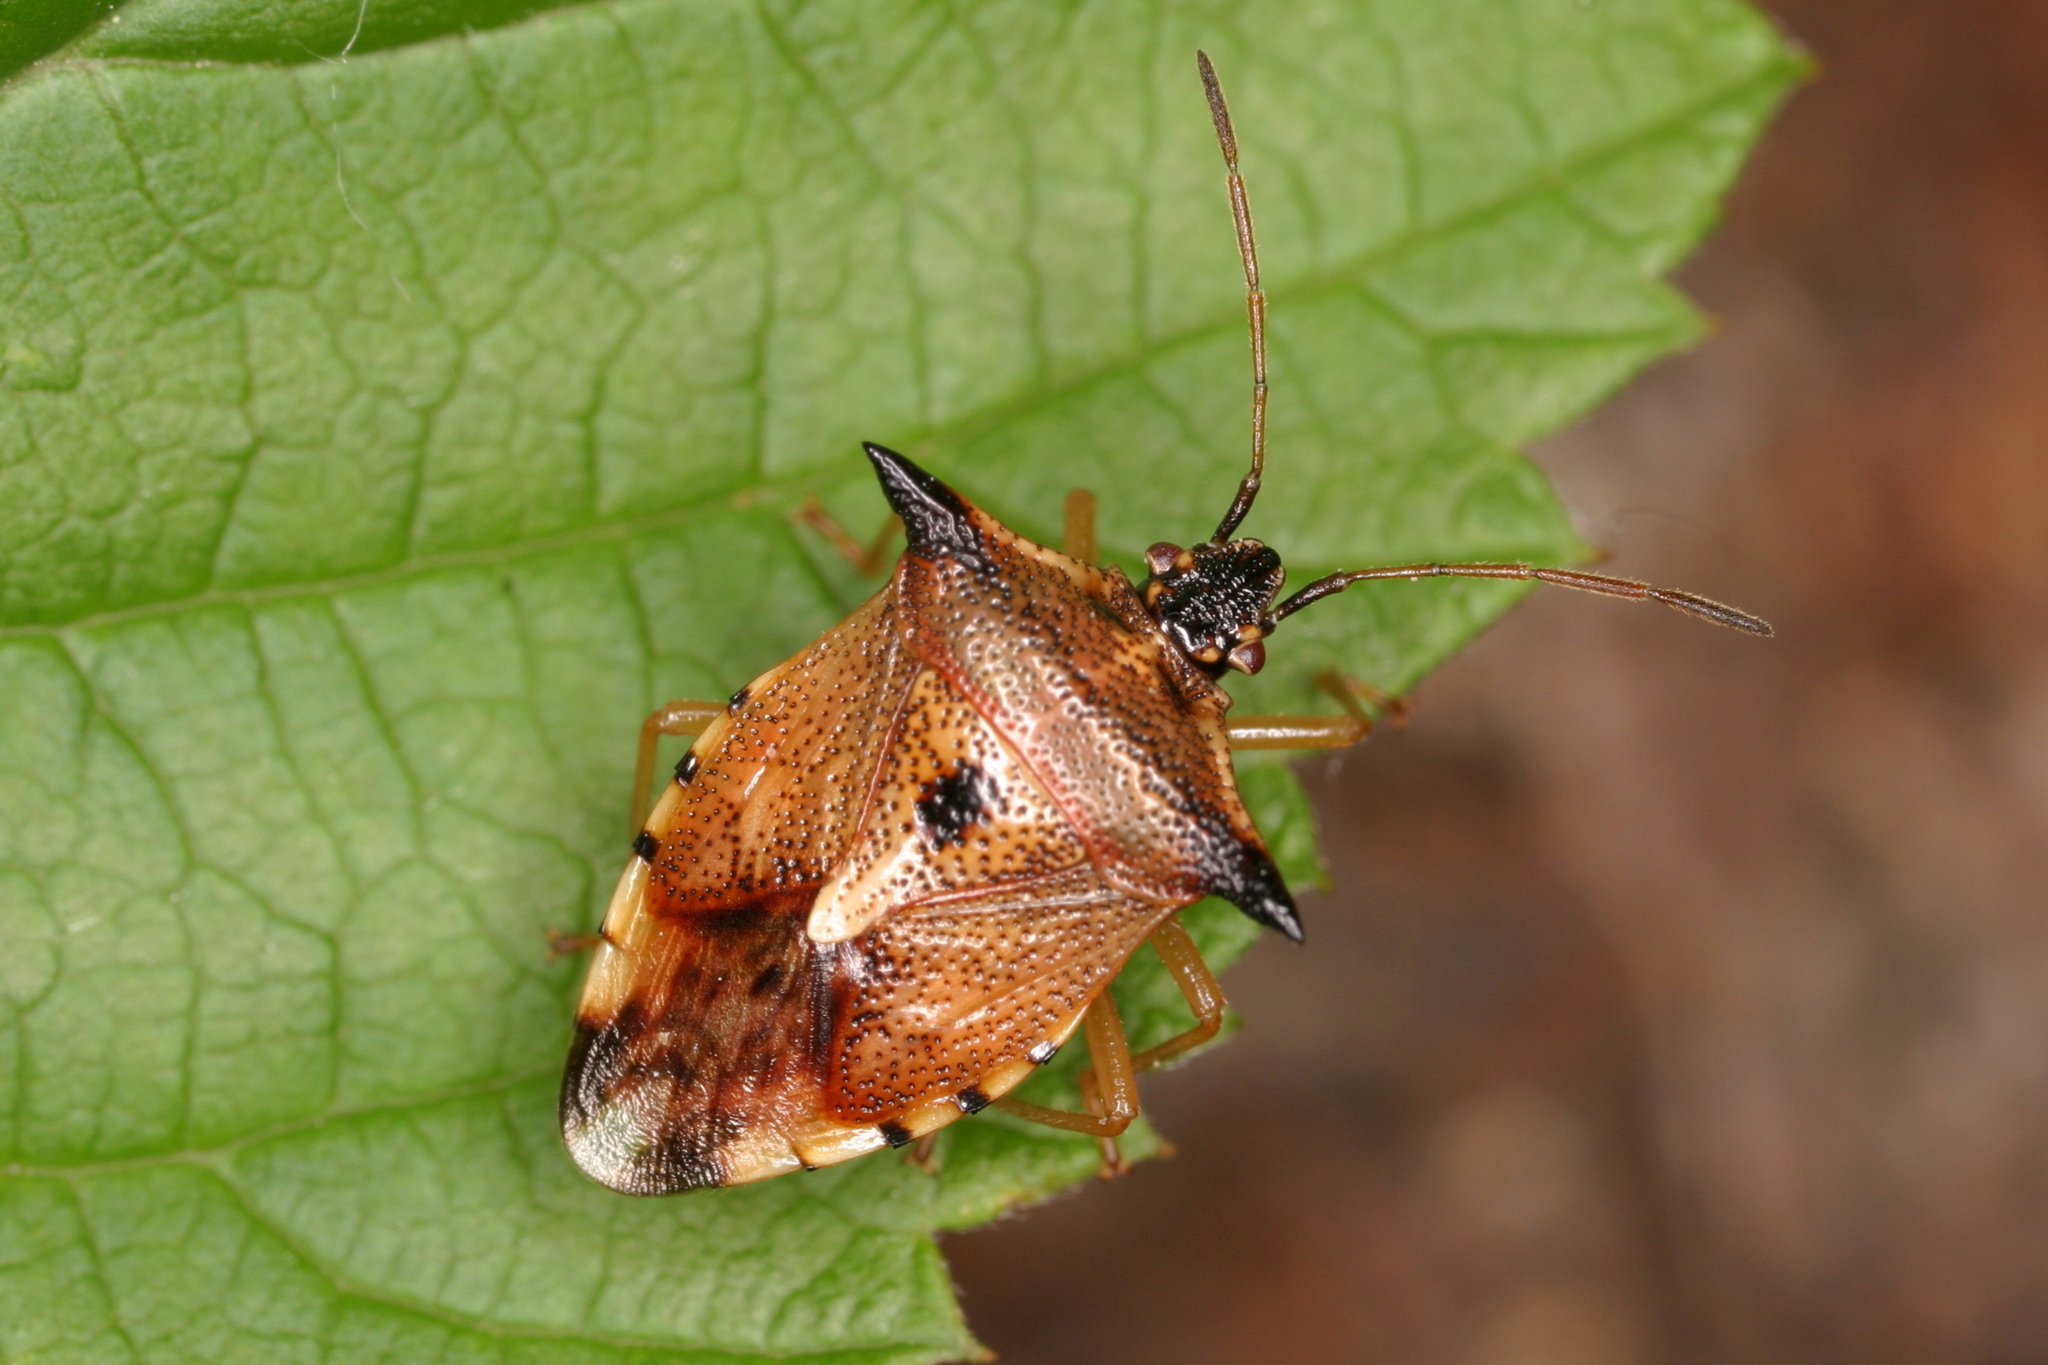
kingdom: Animalia
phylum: Arthropoda
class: Insecta
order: Hemiptera
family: Acanthosomatidae
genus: Elasmucha
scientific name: Elasmucha ferrugata
